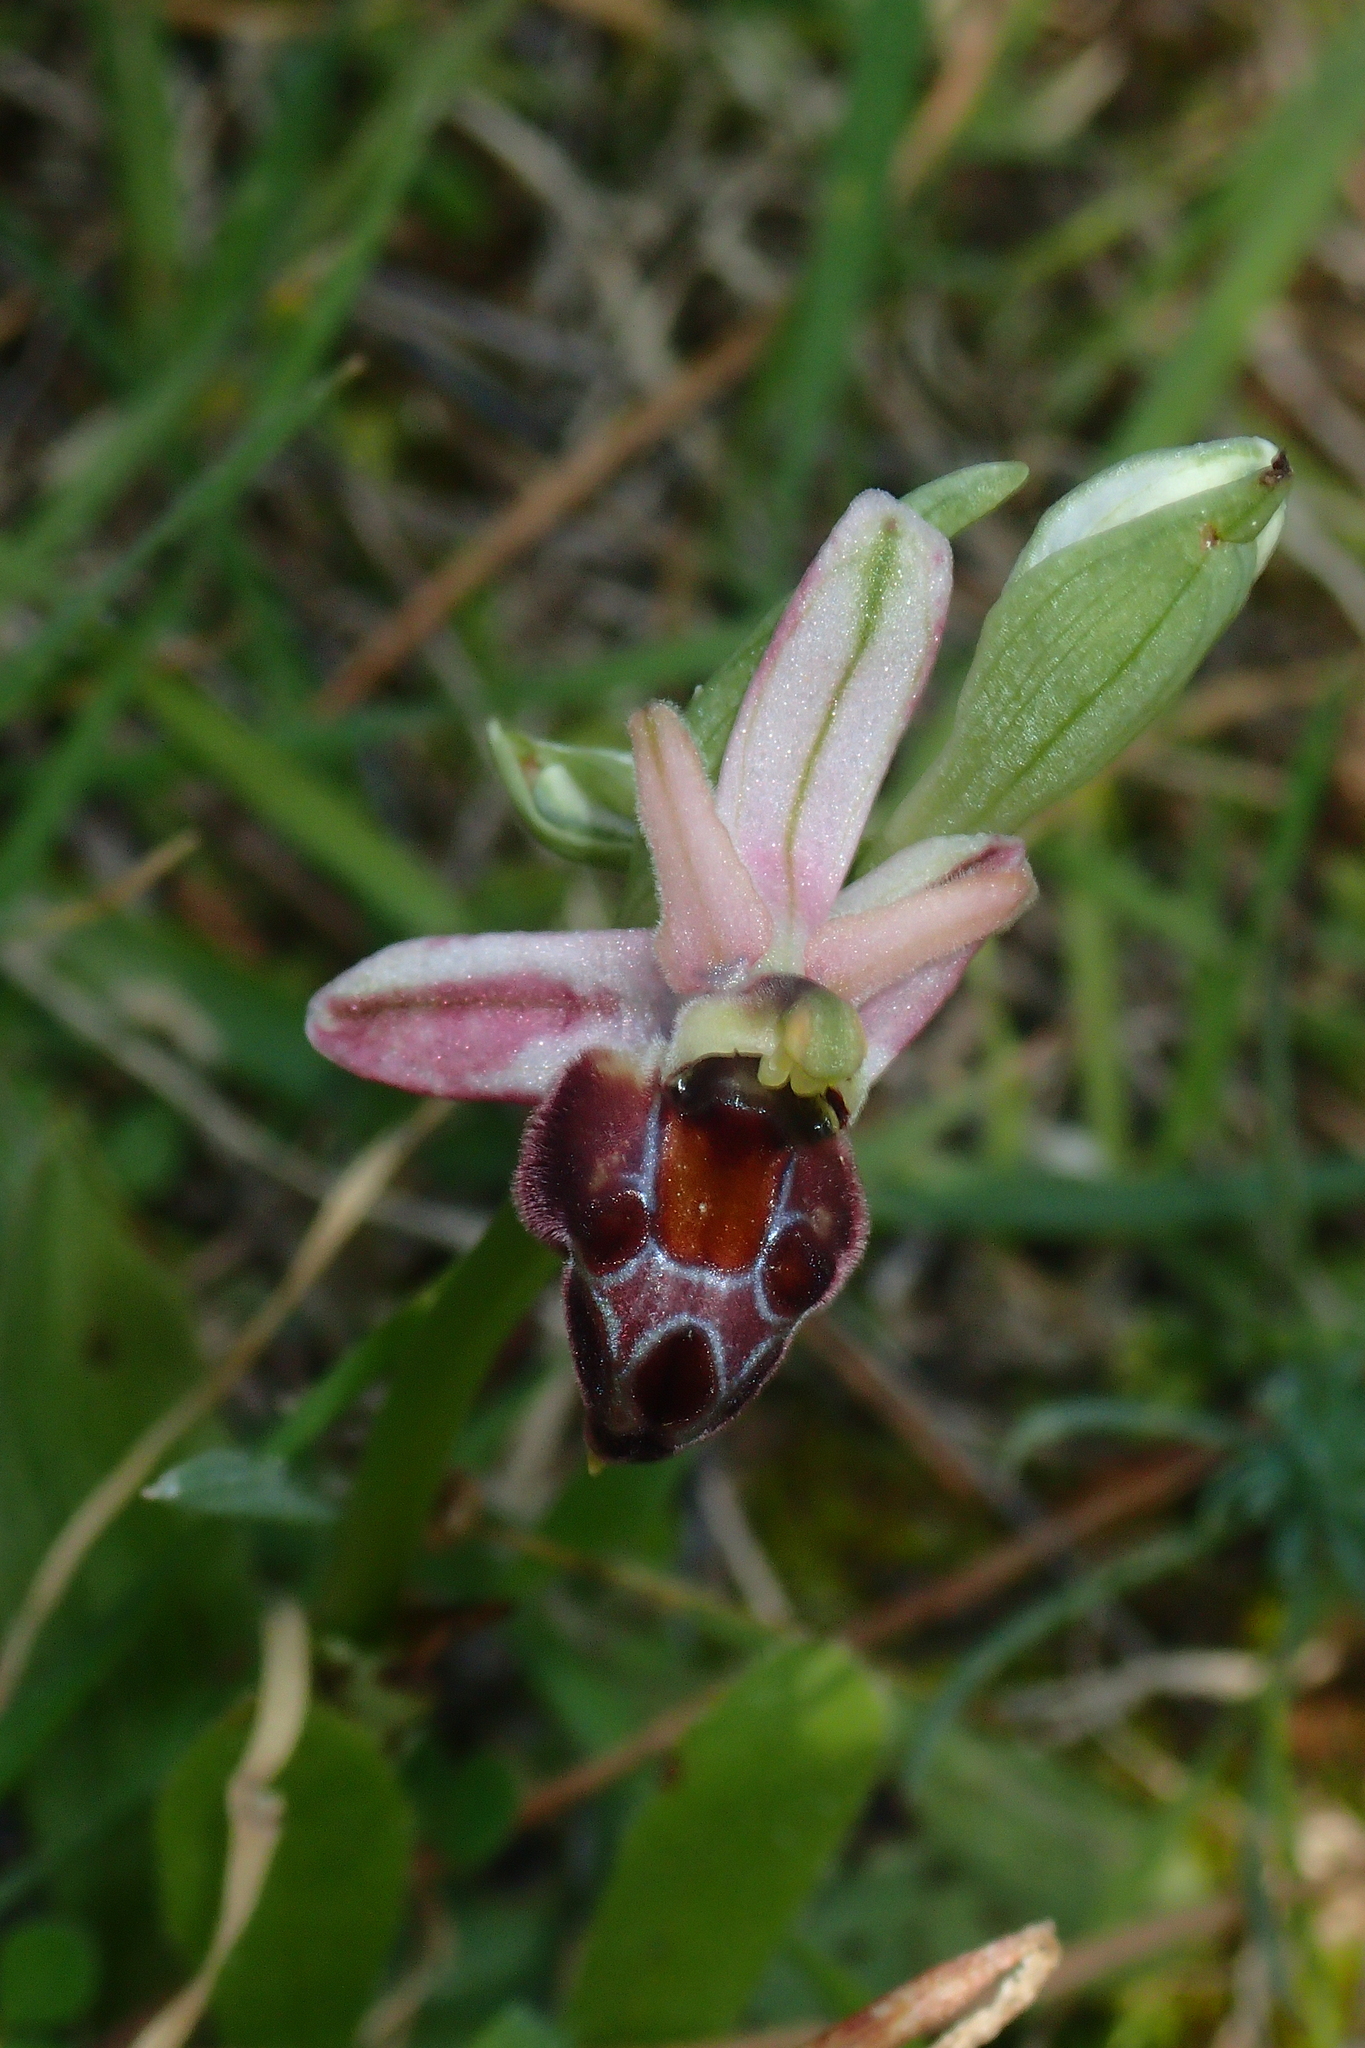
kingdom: Plantae
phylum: Tracheophyta
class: Liliopsida
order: Asparagales
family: Orchidaceae
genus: Ophrys
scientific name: Ophrys argolica
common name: Argolic ophrys
